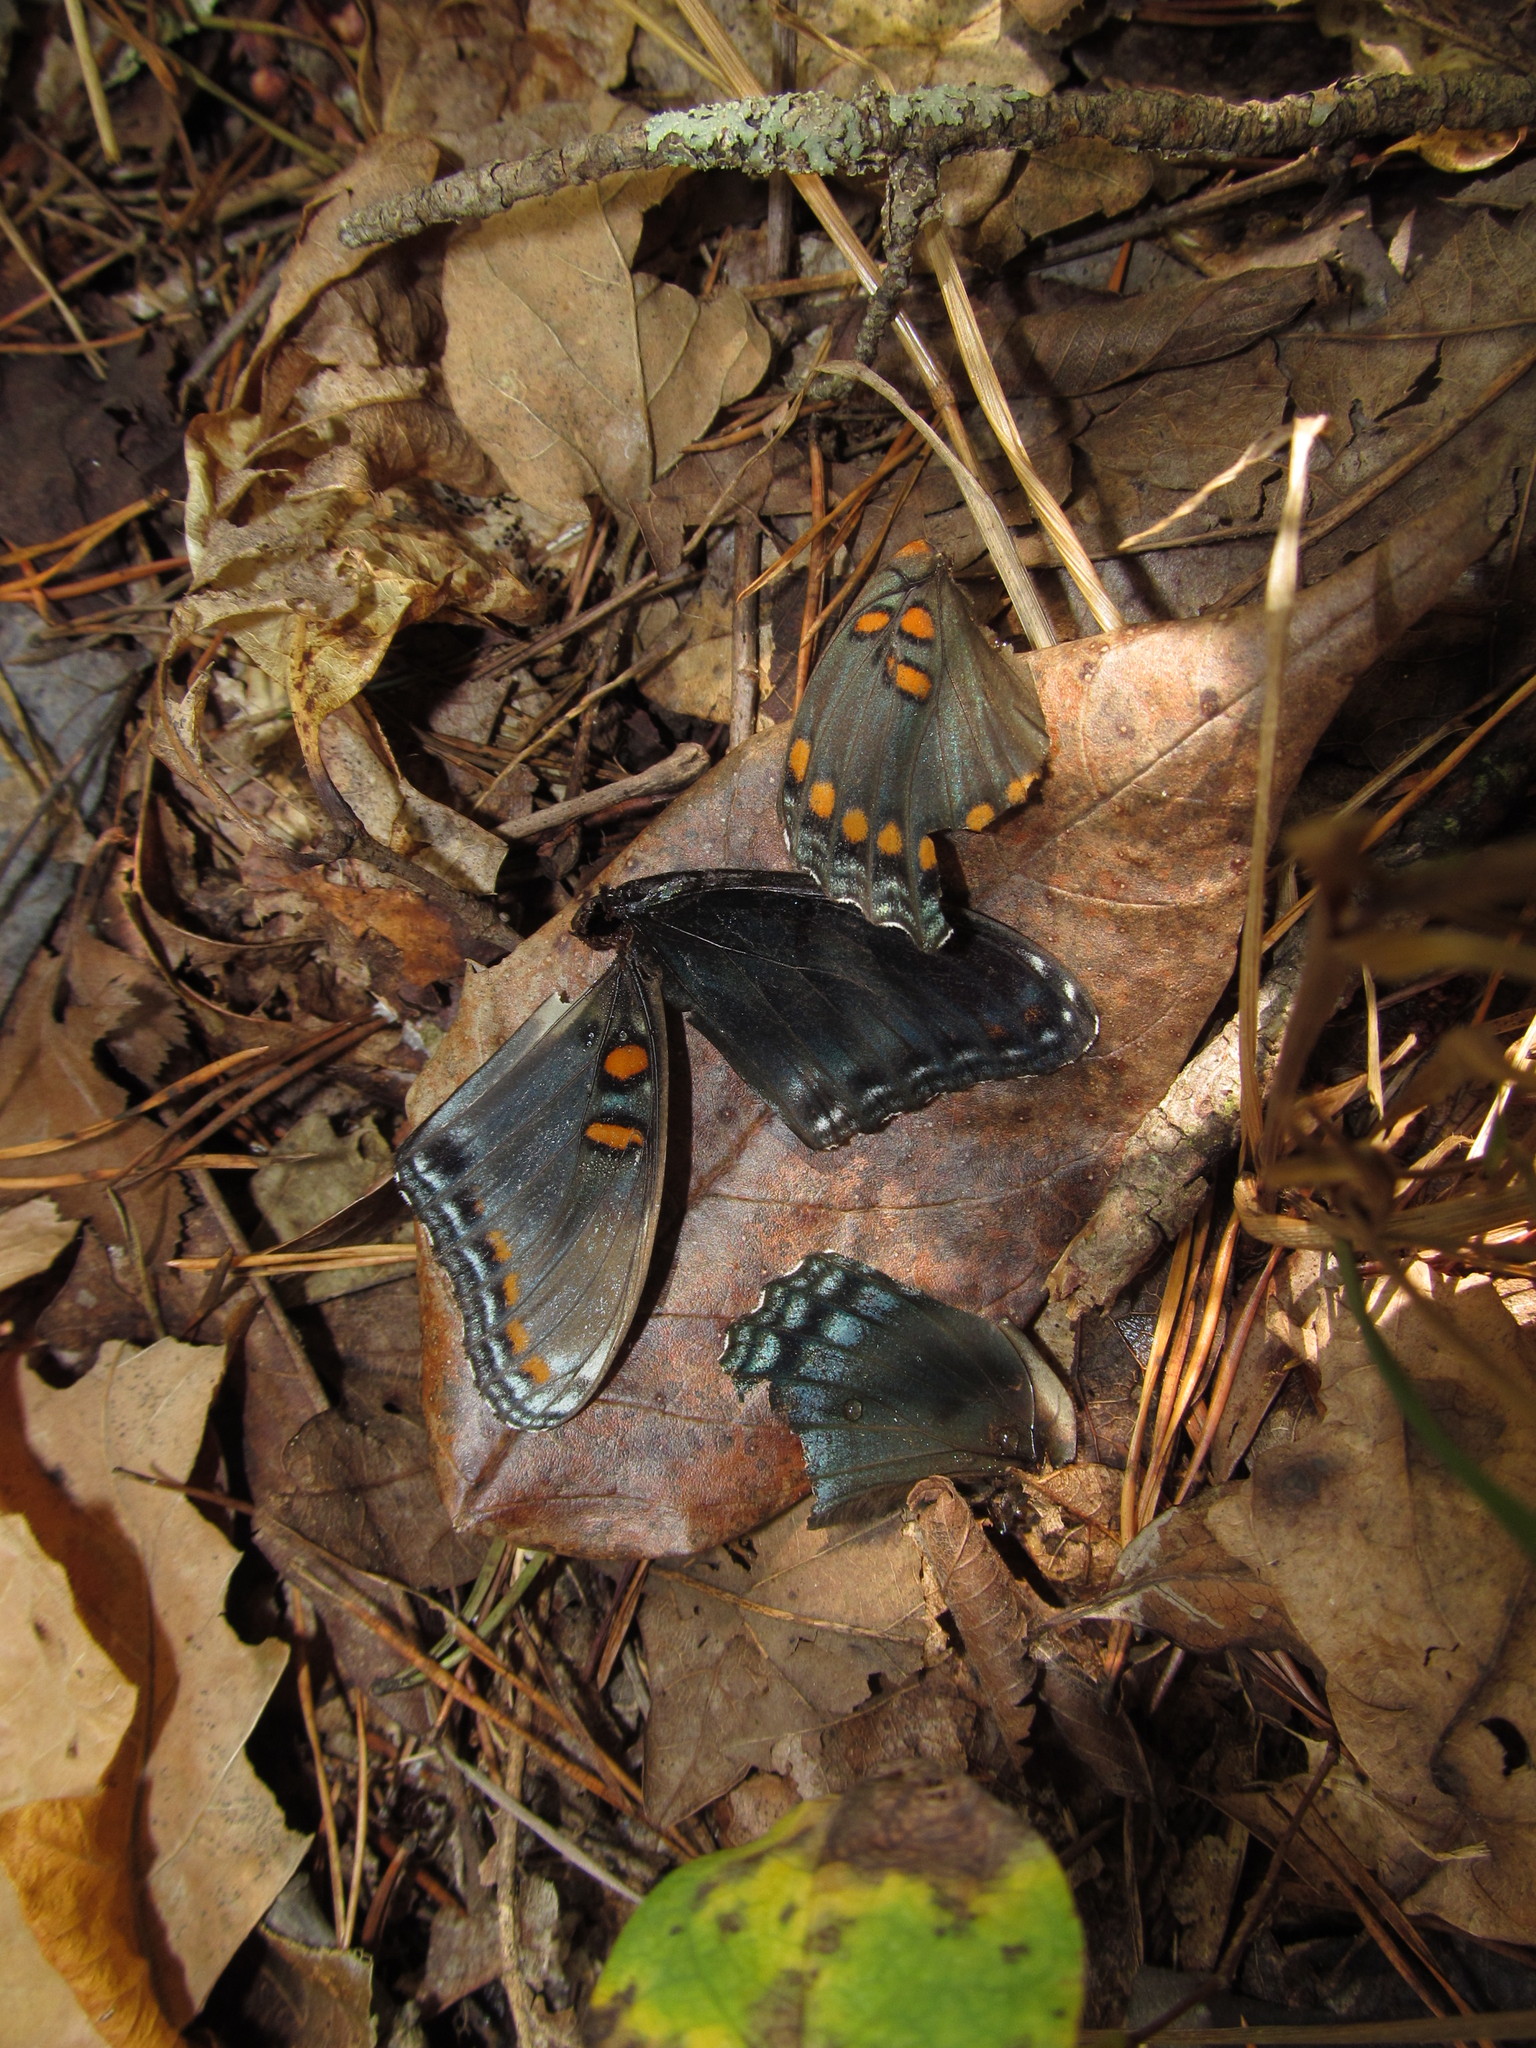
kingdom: Animalia
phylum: Arthropoda
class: Insecta
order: Lepidoptera
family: Nymphalidae
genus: Limenitis
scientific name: Limenitis arthemis
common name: Red-spotted admiral
